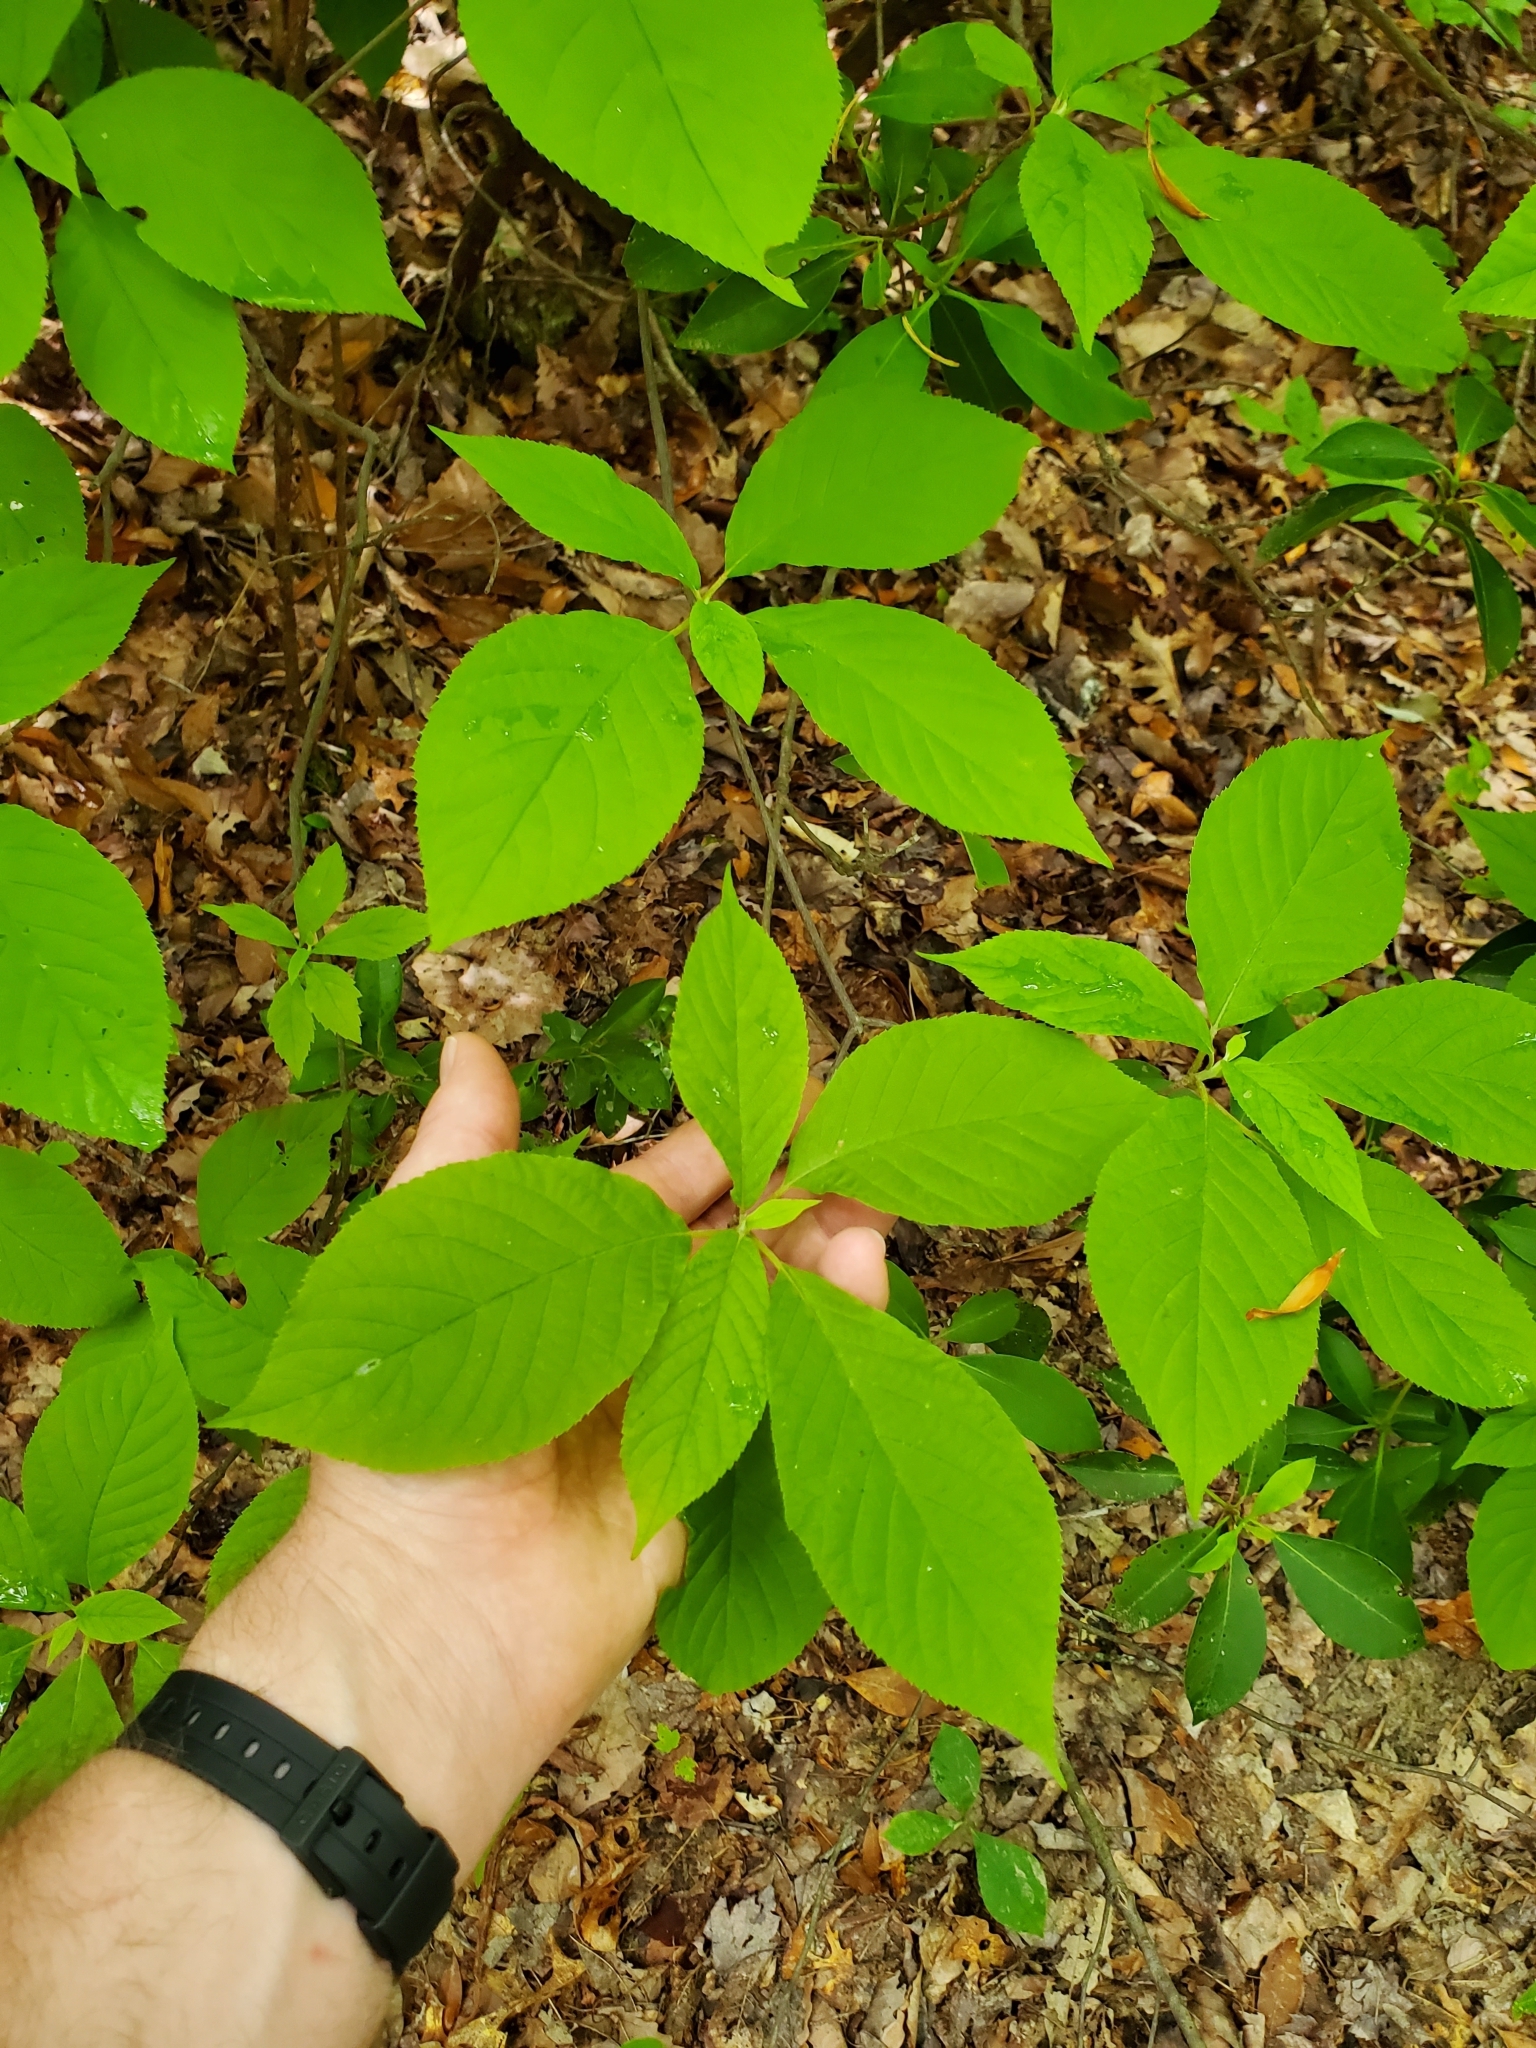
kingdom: Plantae
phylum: Tracheophyta
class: Magnoliopsida
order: Ericales
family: Clethraceae
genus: Clethra
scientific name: Clethra acuminata
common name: Mountain sweet pepperbush
